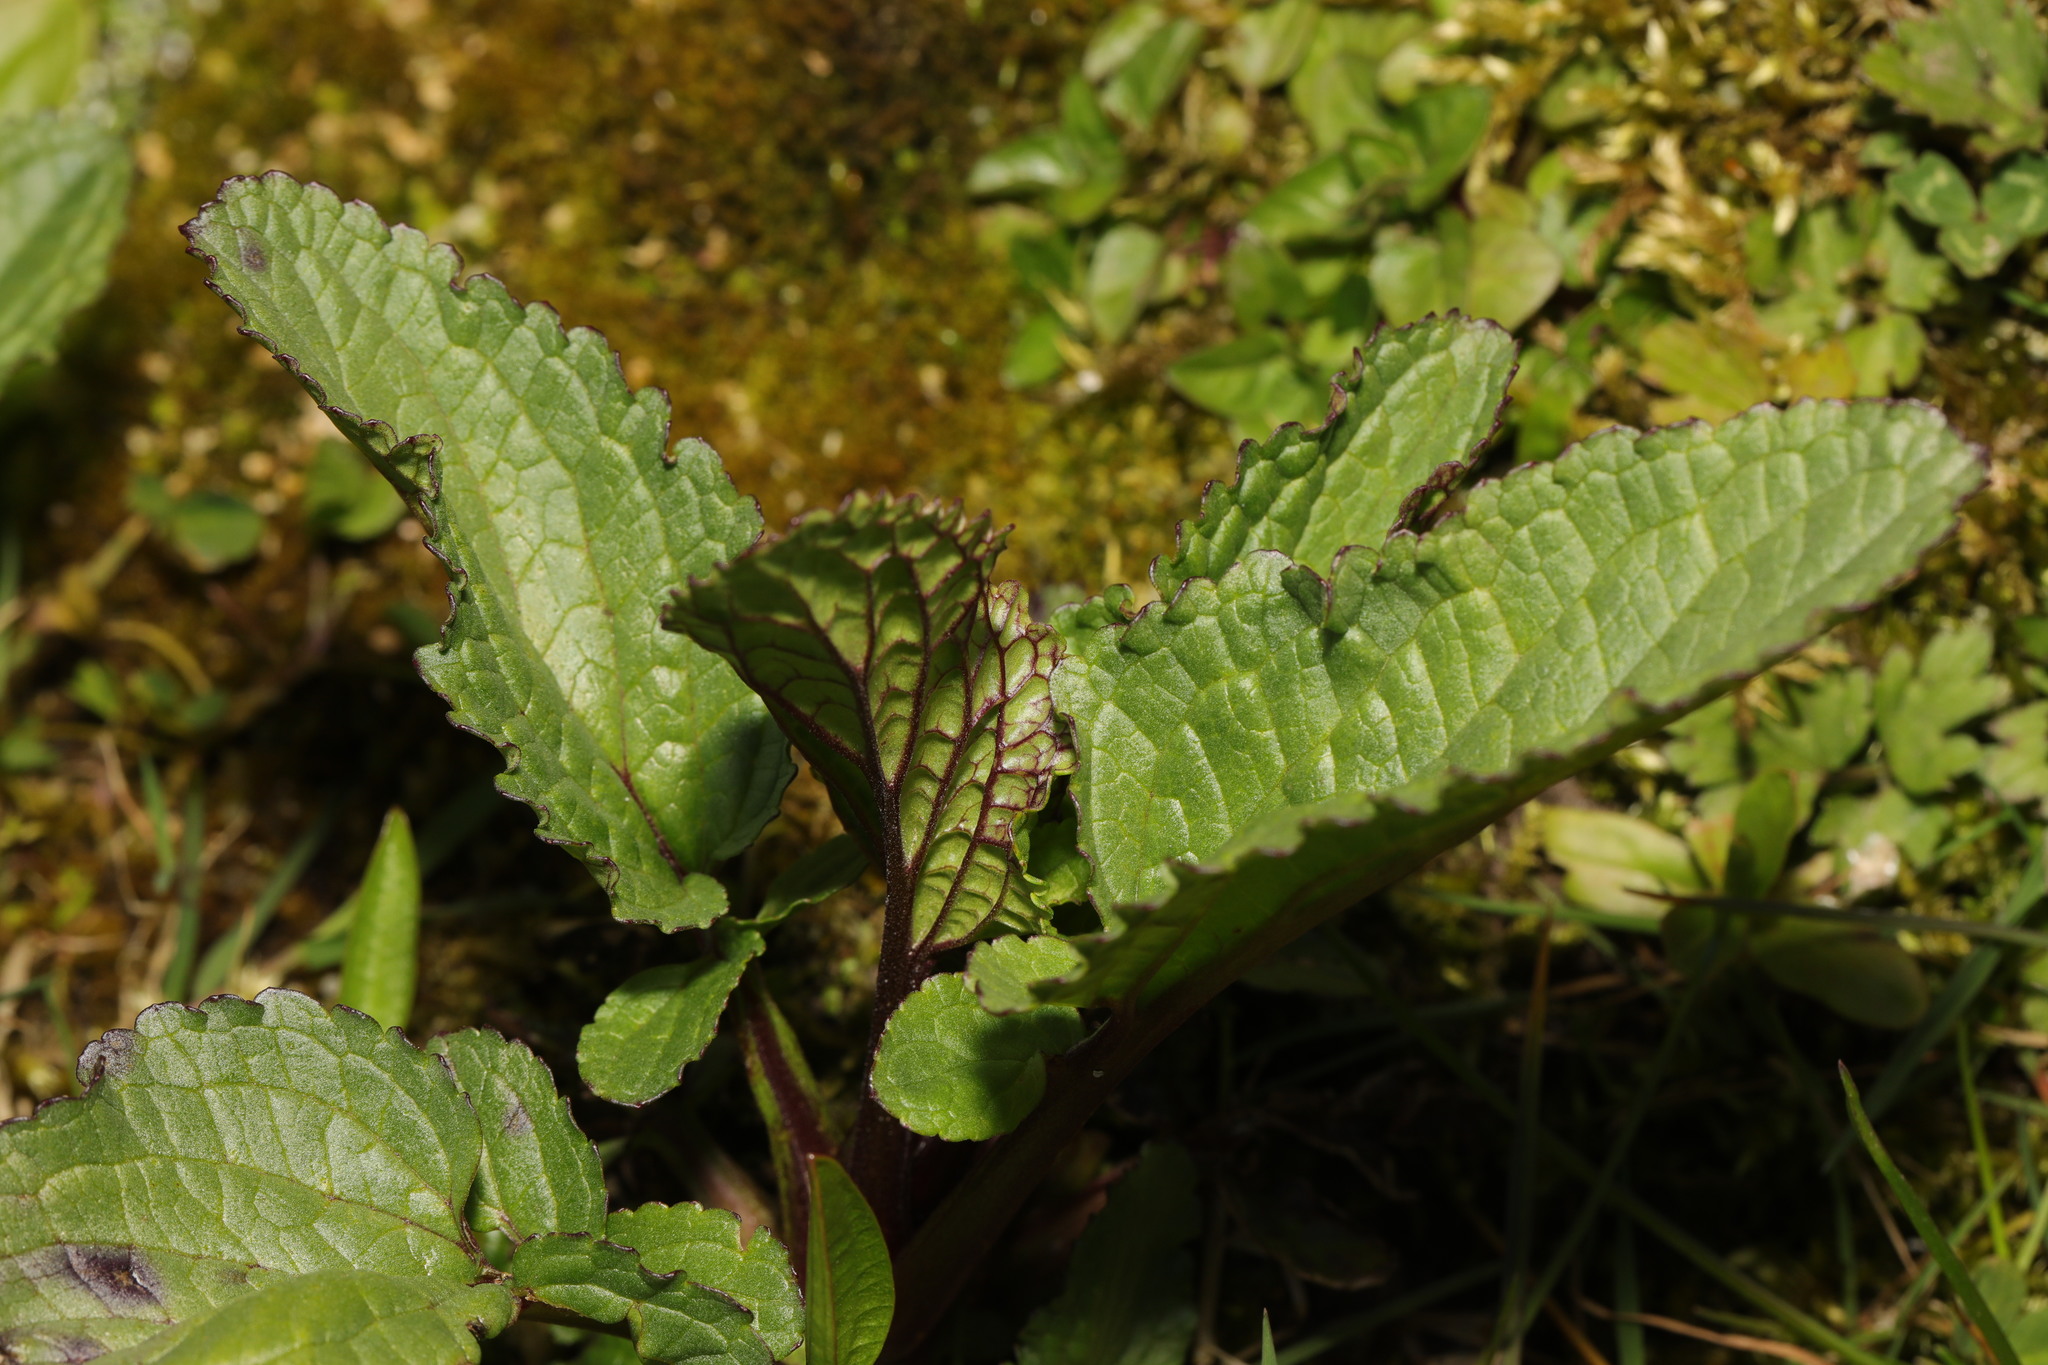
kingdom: Plantae
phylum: Tracheophyta
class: Magnoliopsida
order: Lamiales
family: Scrophulariaceae
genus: Scrophularia
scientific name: Scrophularia auriculata
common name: Water betony
